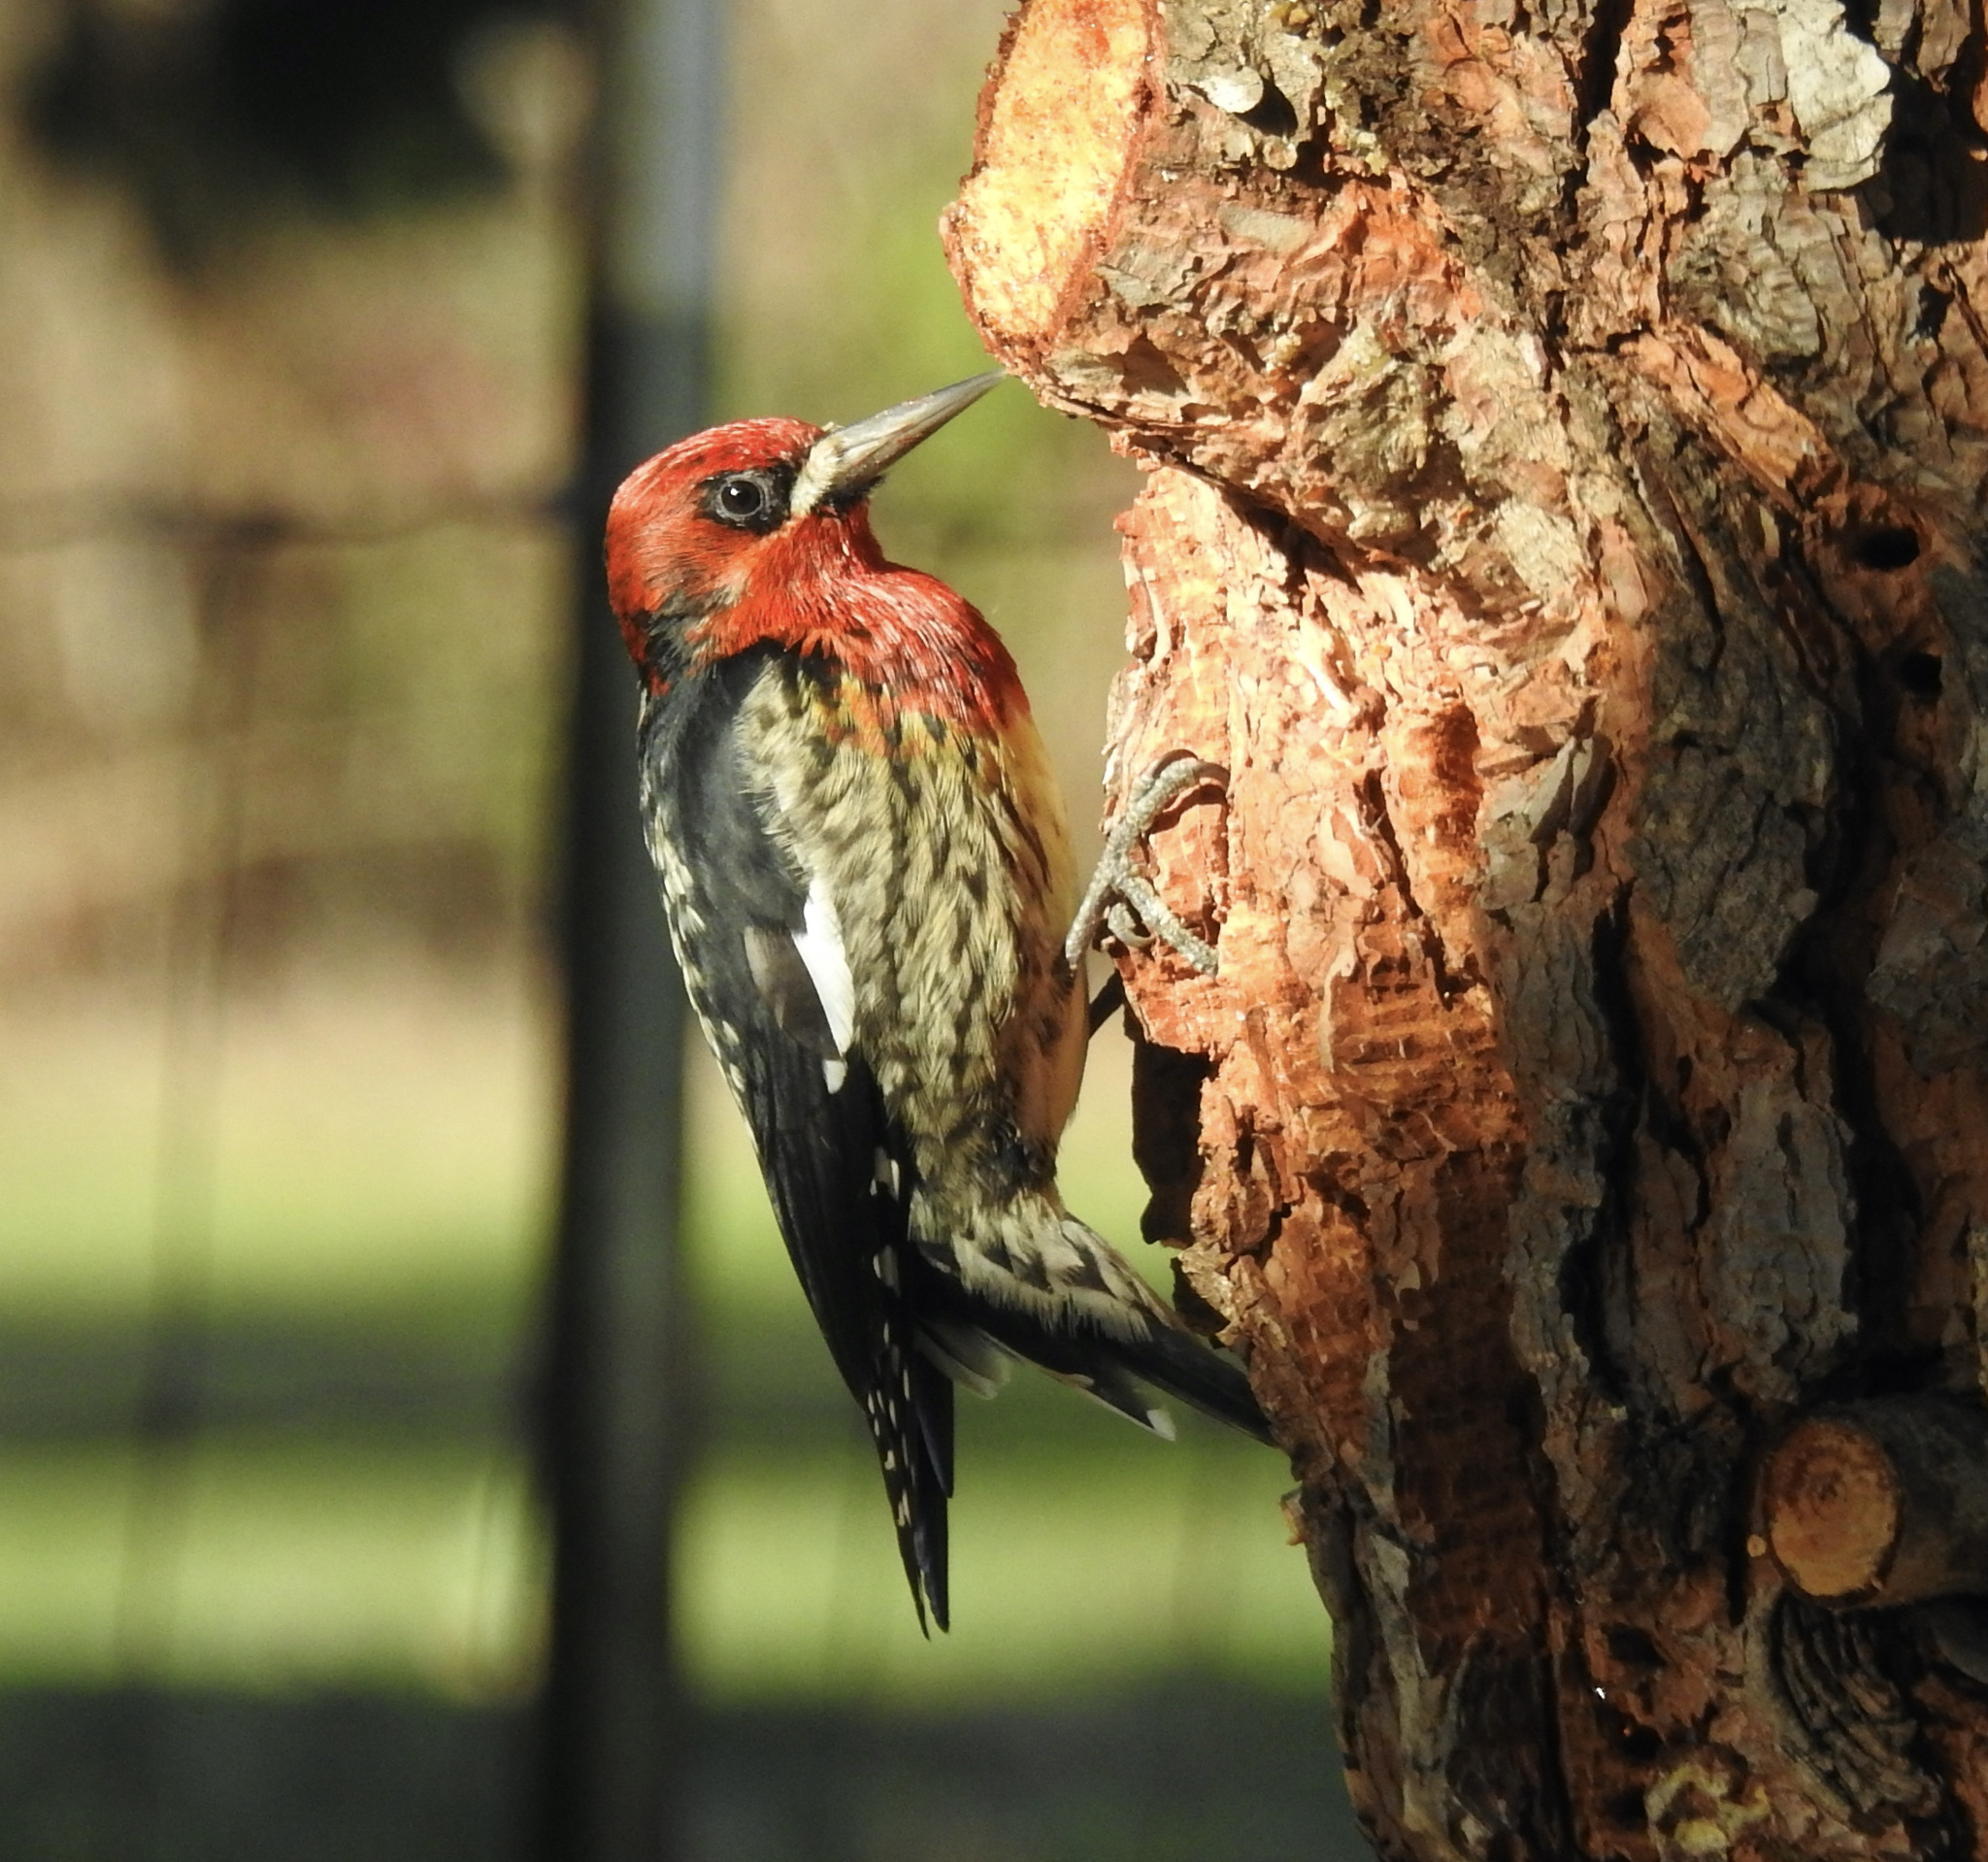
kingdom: Animalia
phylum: Chordata
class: Aves
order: Piciformes
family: Picidae
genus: Sphyrapicus
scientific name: Sphyrapicus ruber
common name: Red-breasted sapsucker
